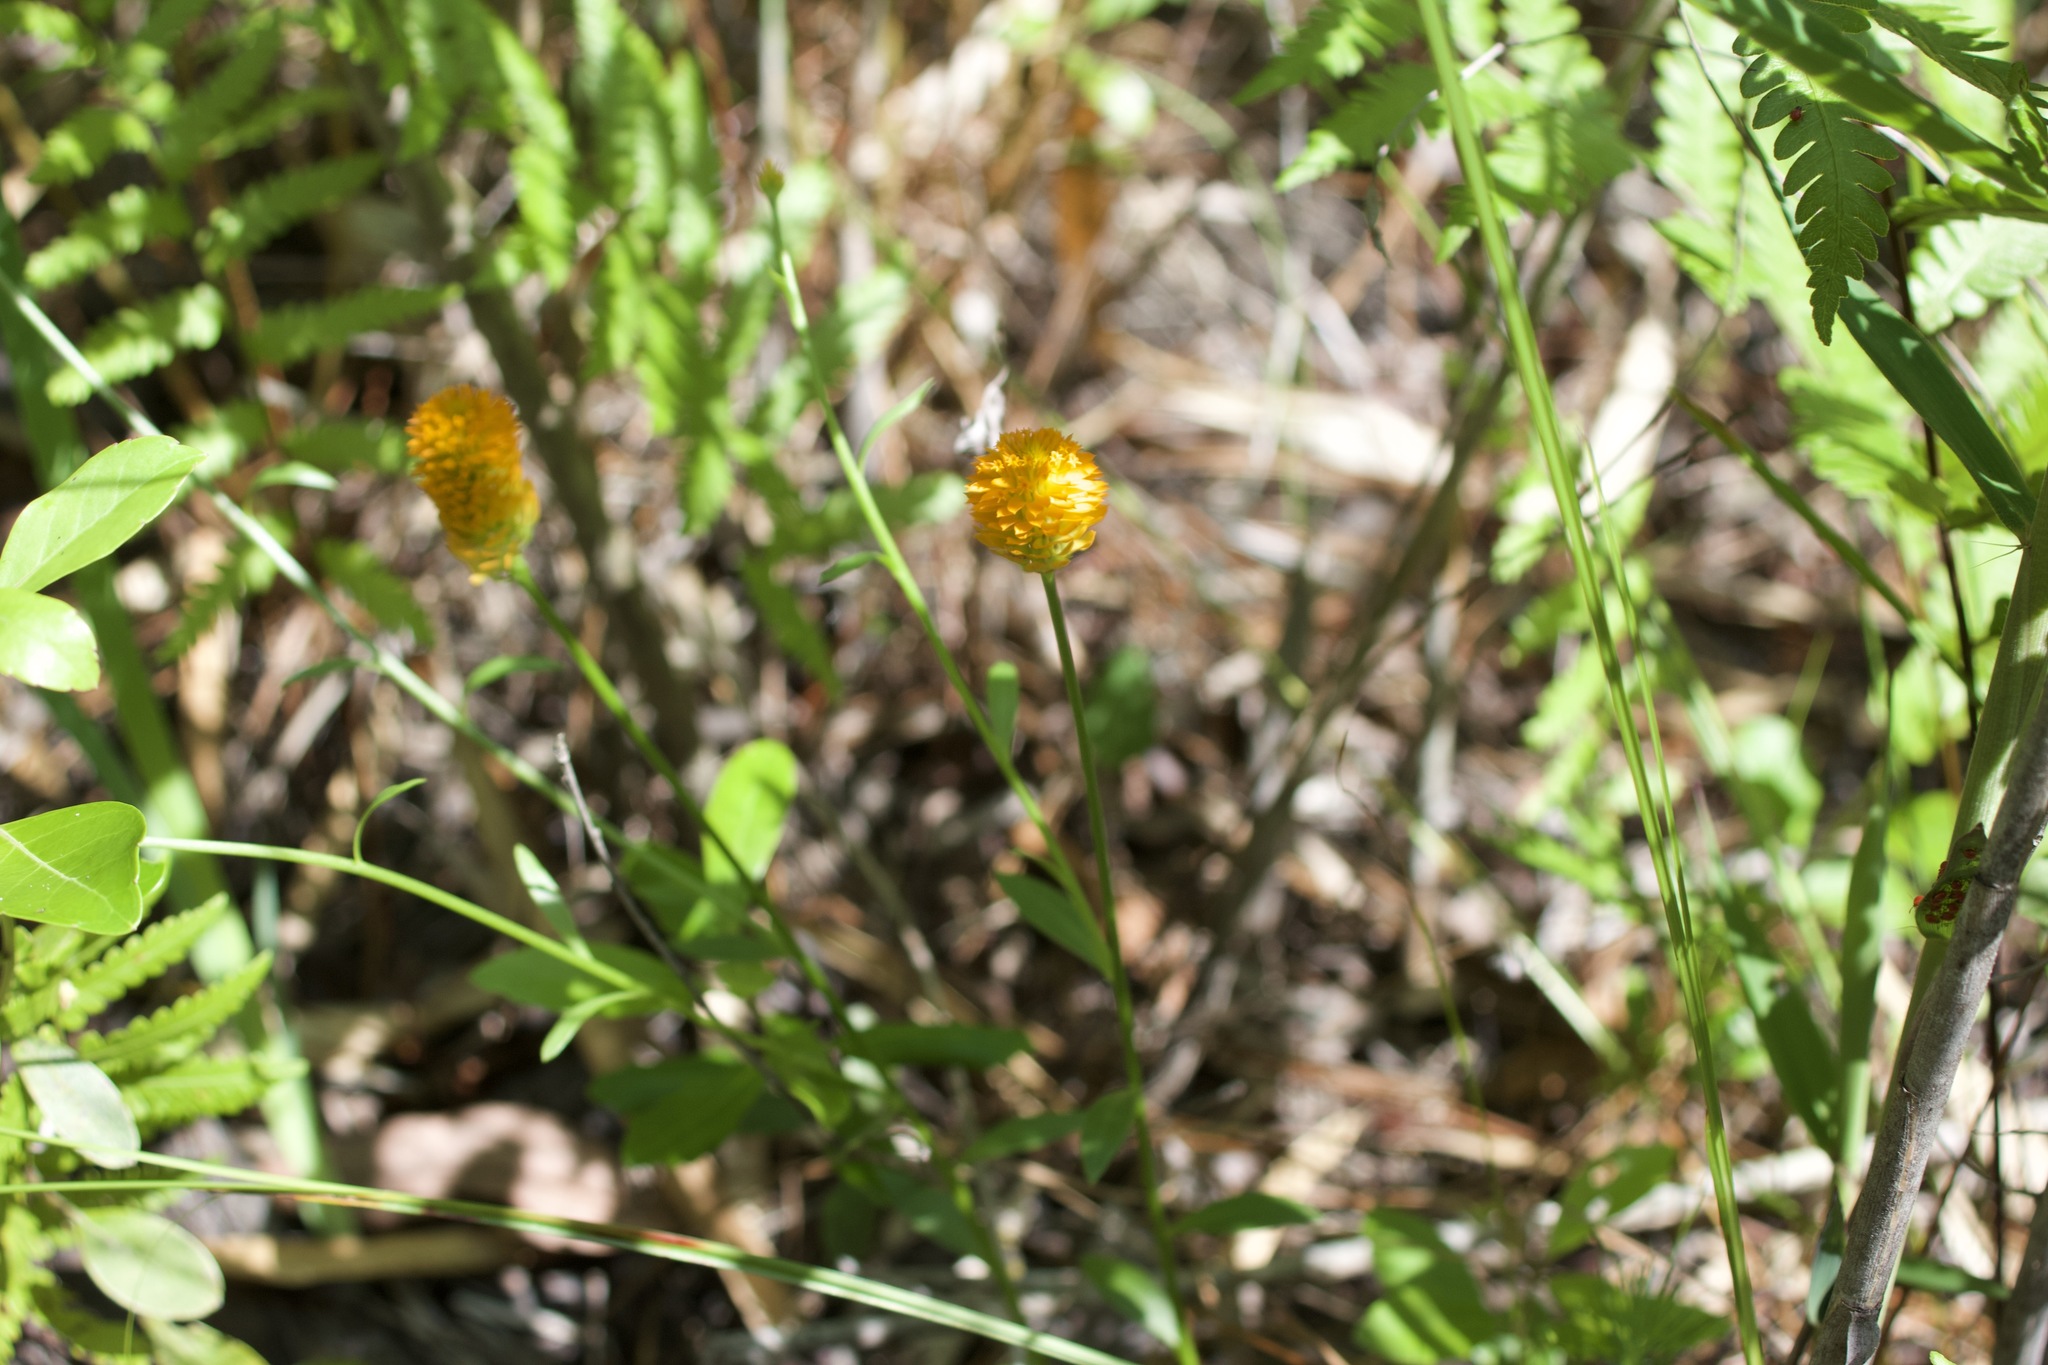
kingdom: Plantae
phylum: Tracheophyta
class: Magnoliopsida
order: Fabales
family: Polygalaceae
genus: Polygala
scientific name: Polygala lutea
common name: Orange milkwort
